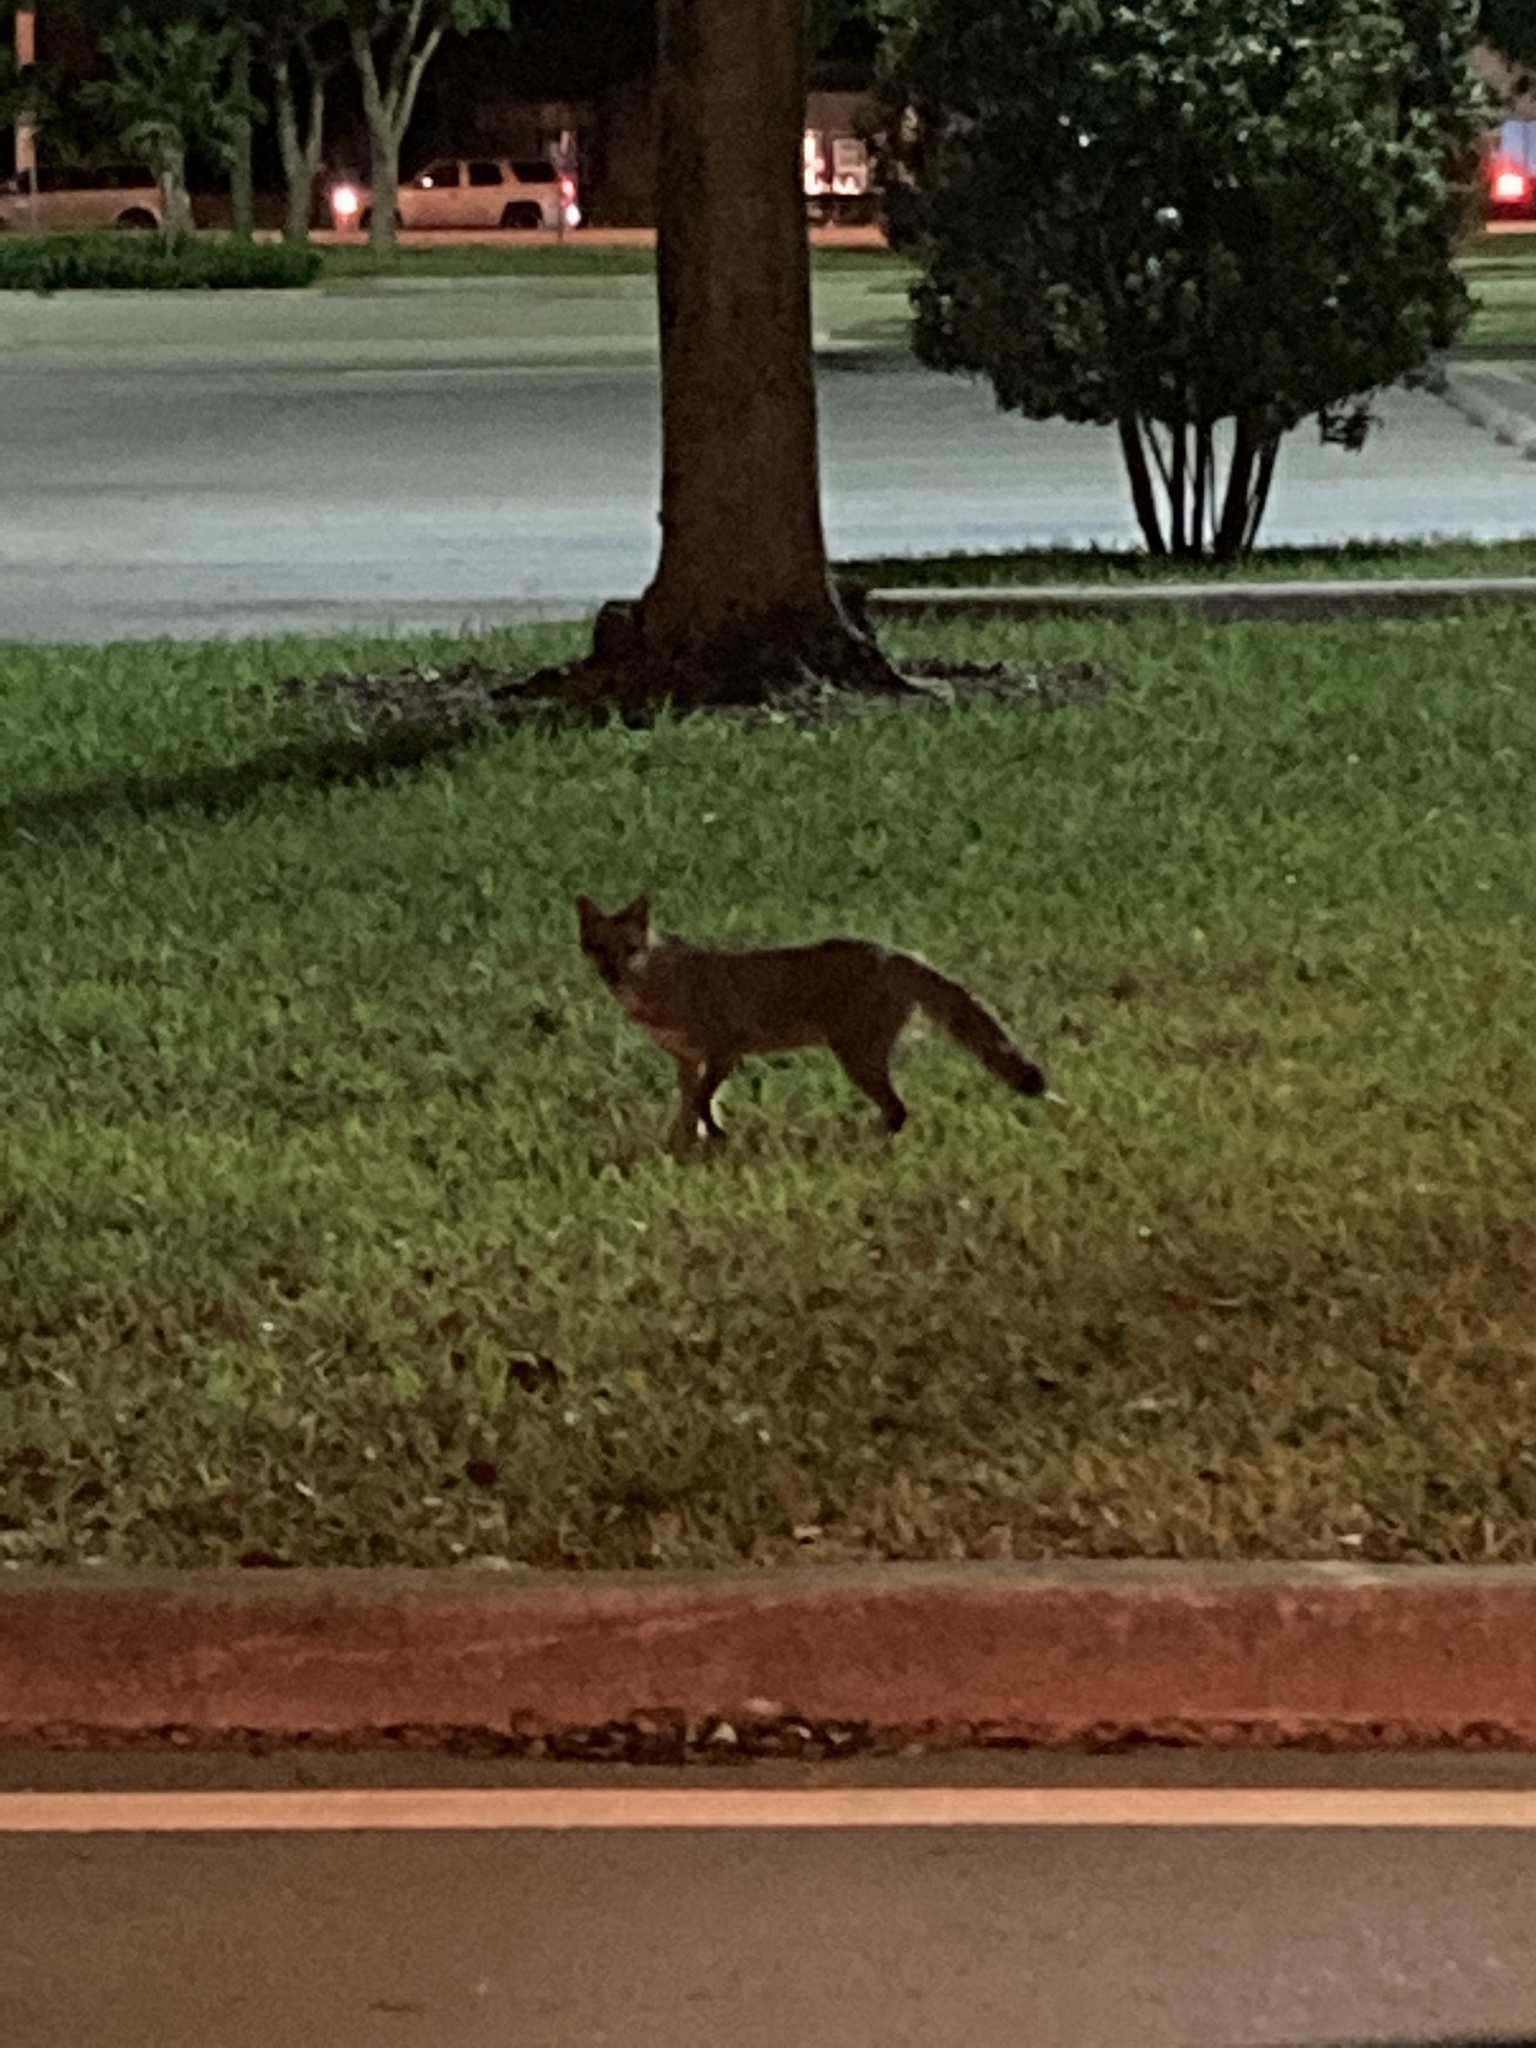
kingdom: Animalia
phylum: Chordata
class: Mammalia
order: Carnivora
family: Canidae
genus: Urocyon
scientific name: Urocyon cinereoargenteus
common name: Gray fox
